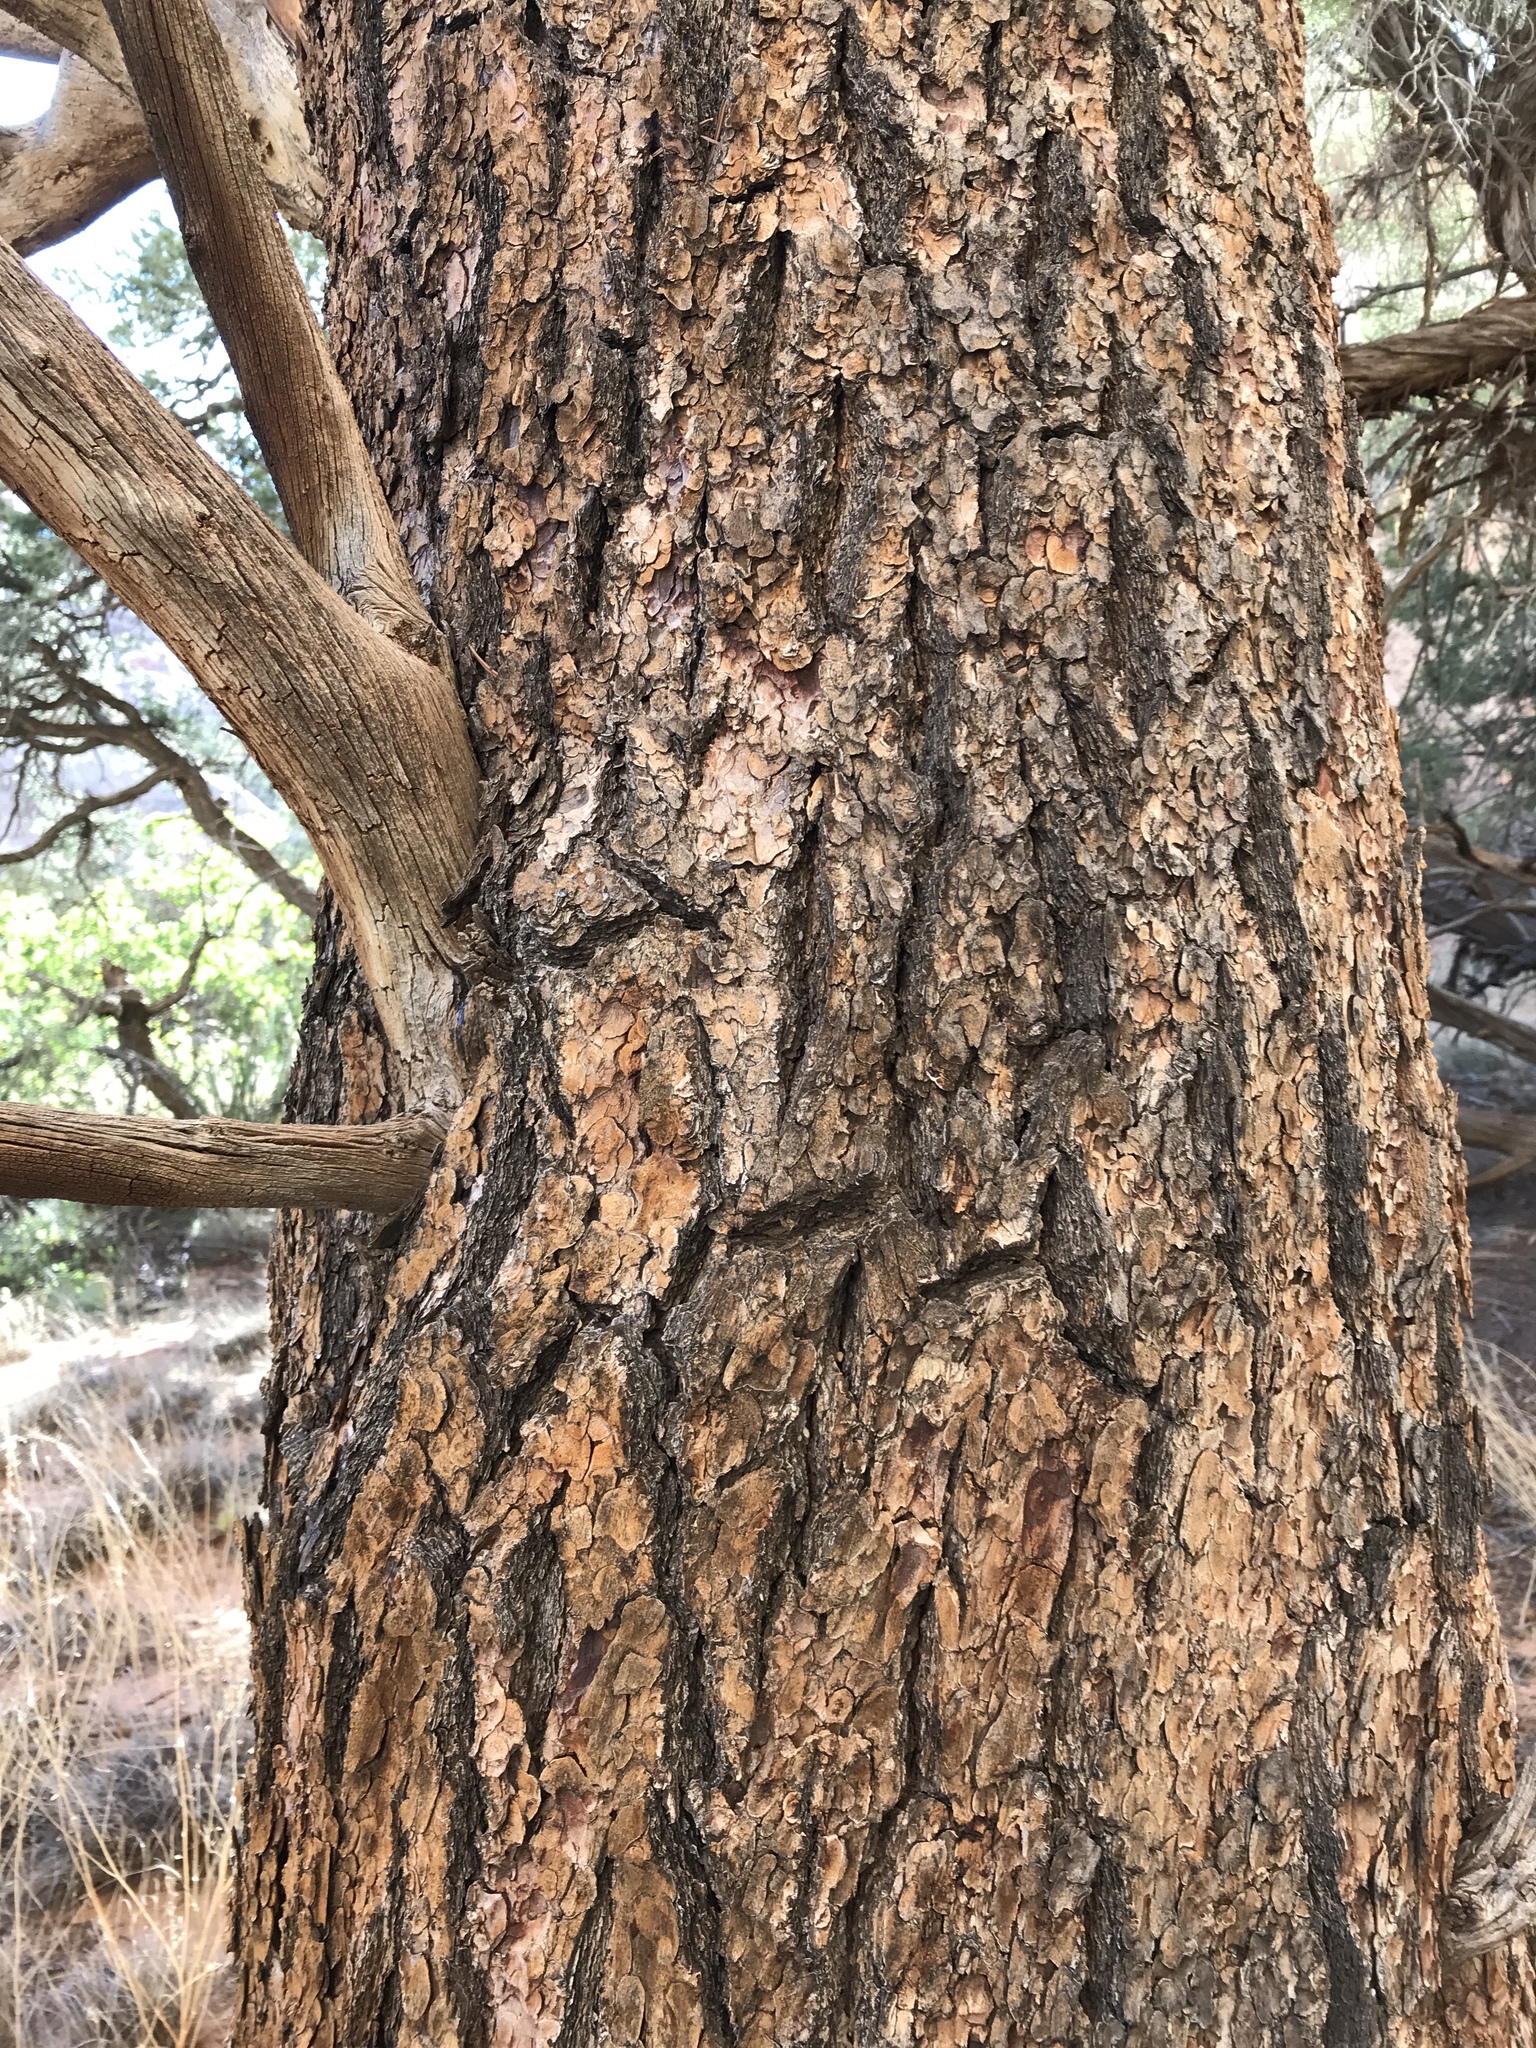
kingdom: Plantae
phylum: Tracheophyta
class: Pinopsida
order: Pinales
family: Pinaceae
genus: Pinus
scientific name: Pinus edulis
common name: Colorado pinyon
